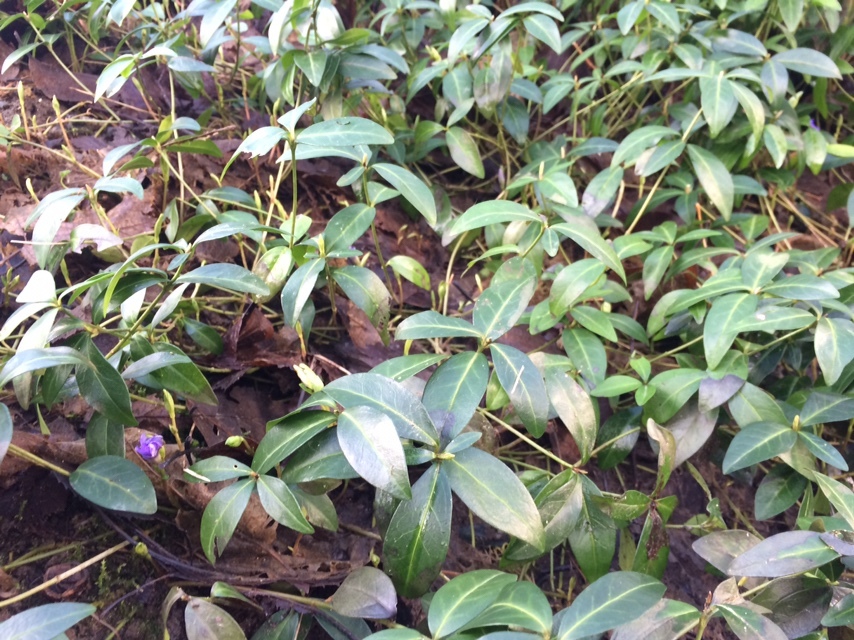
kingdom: Plantae
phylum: Tracheophyta
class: Magnoliopsida
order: Gentianales
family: Apocynaceae
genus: Vinca
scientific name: Vinca minor
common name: Lesser periwinkle
